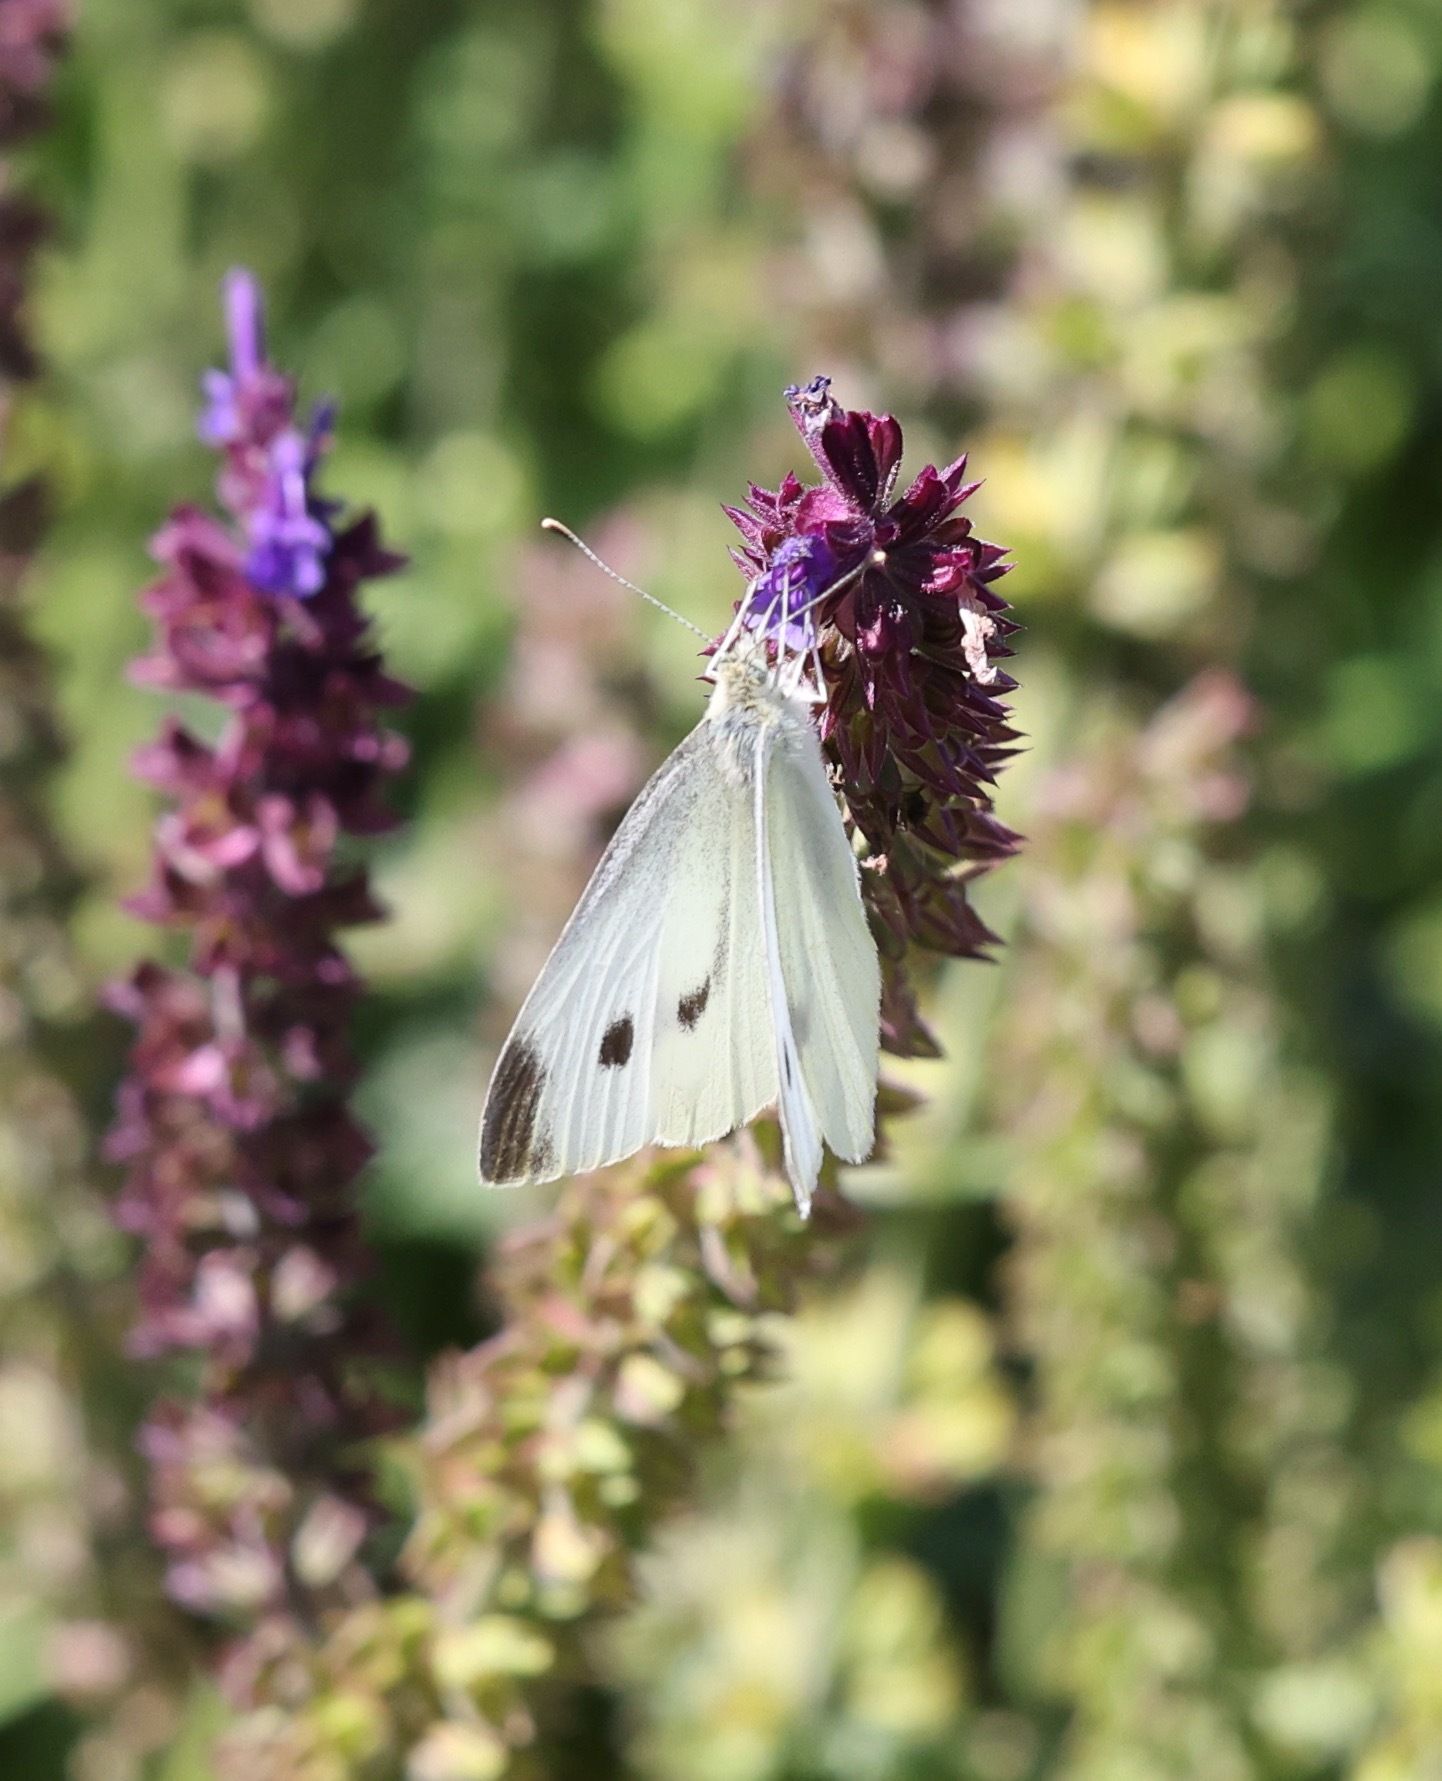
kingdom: Animalia
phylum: Arthropoda
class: Insecta
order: Lepidoptera
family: Pieridae
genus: Pieris
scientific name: Pieris rapae
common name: Small white
